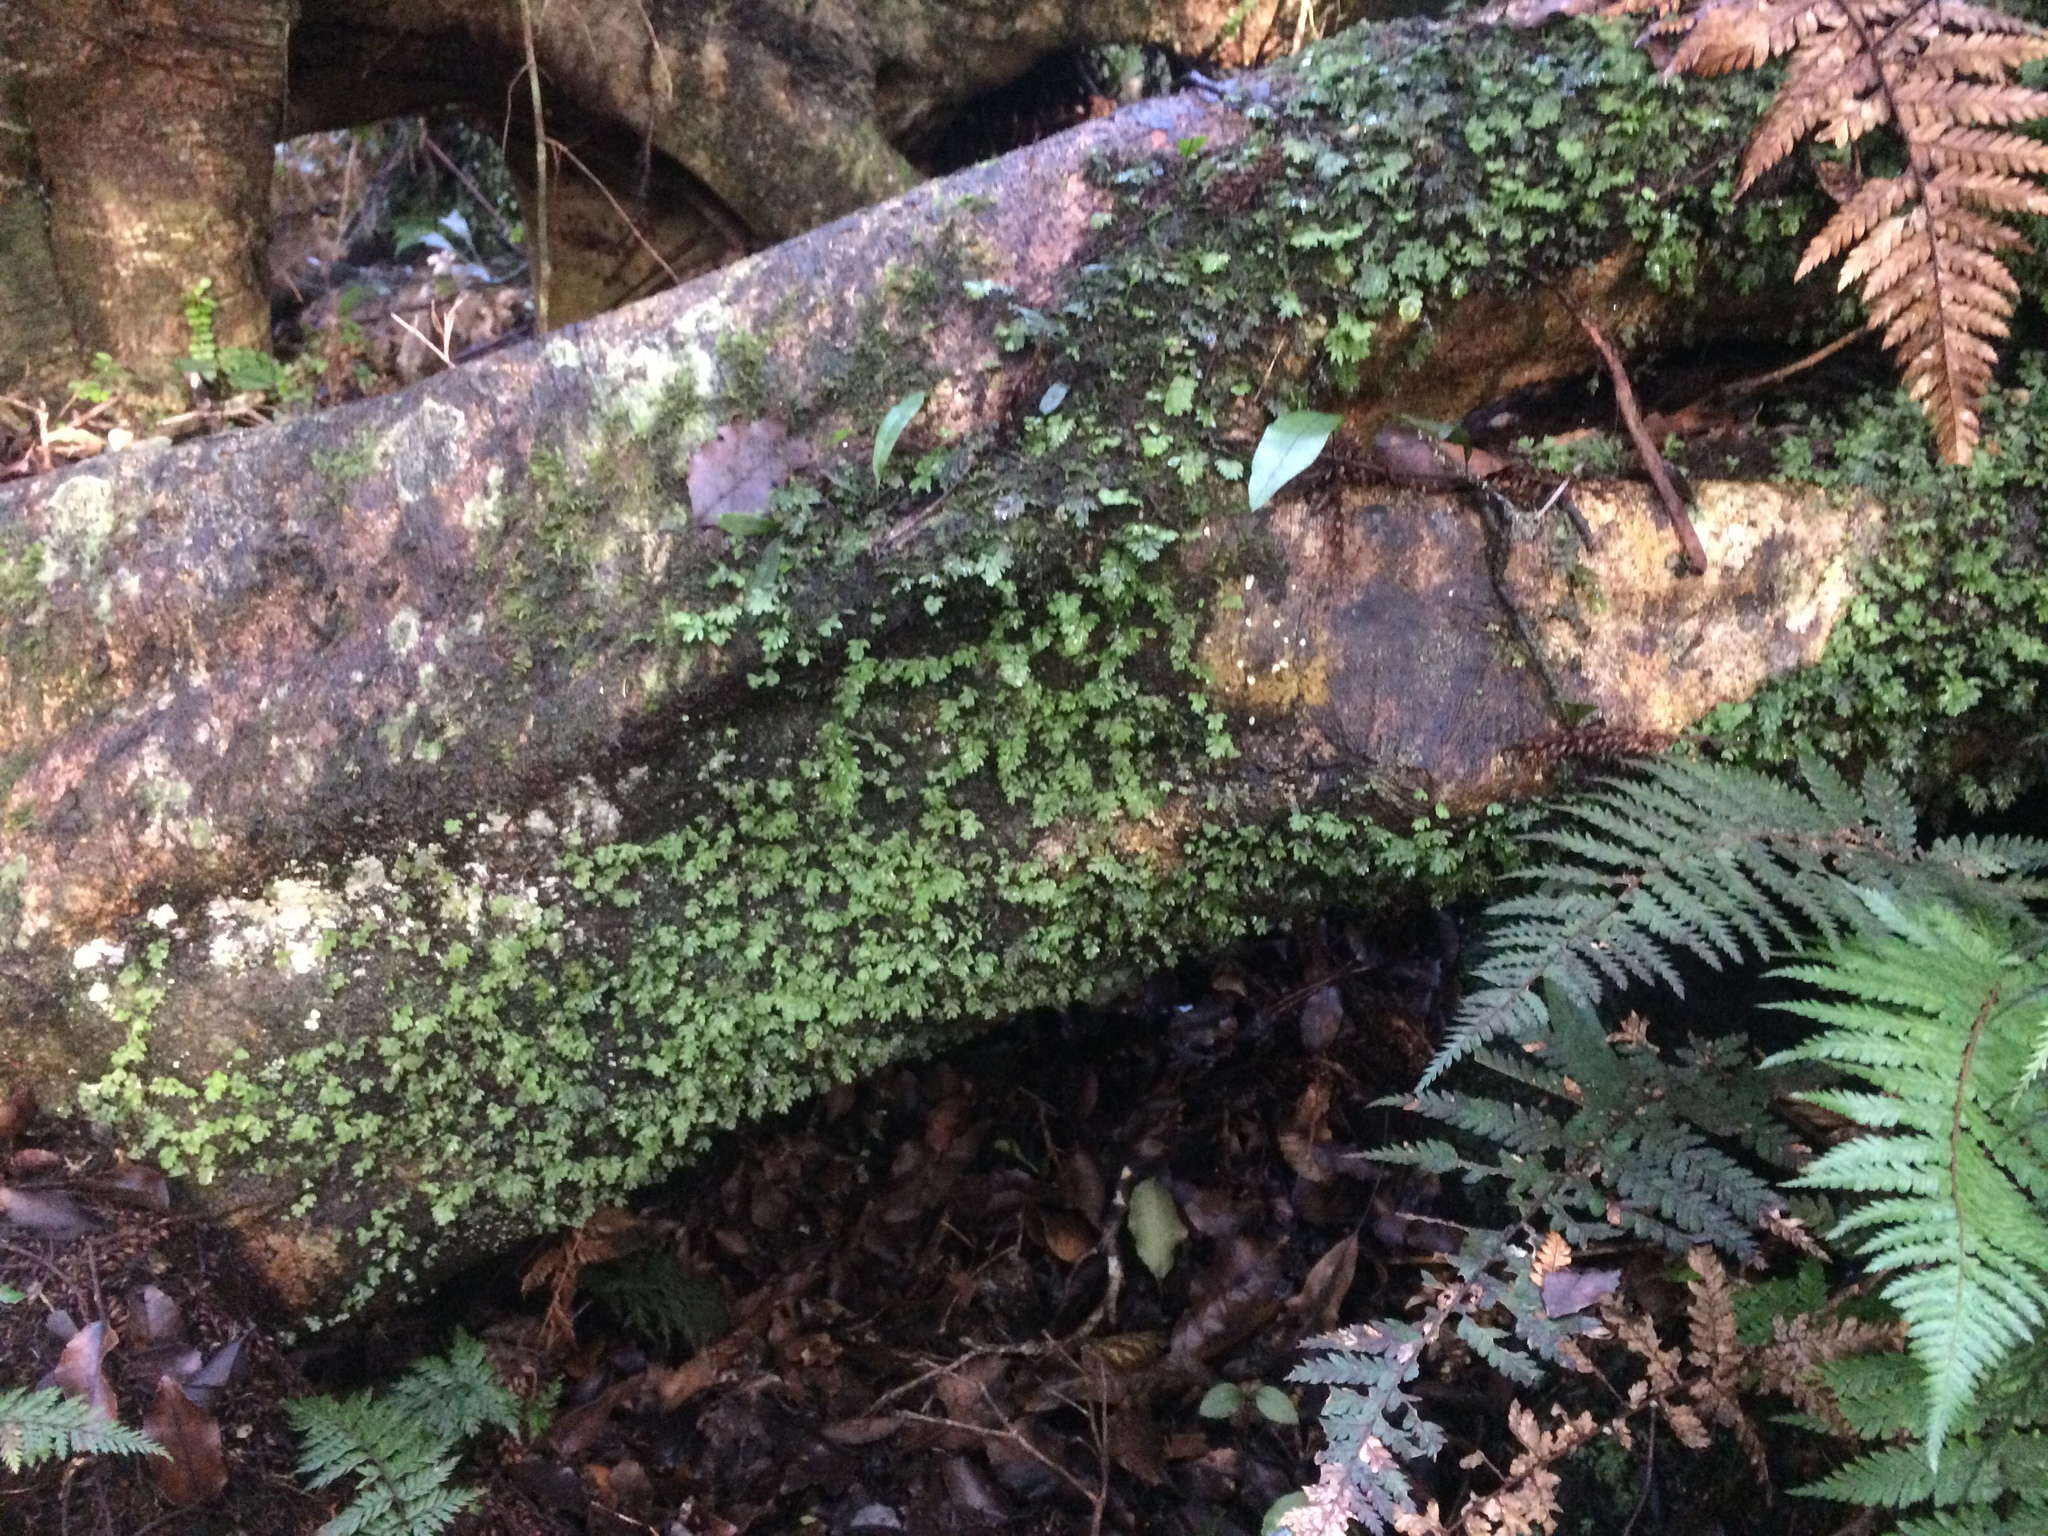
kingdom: Plantae
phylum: Tracheophyta
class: Polypodiopsida
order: Hymenophyllales
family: Hymenophyllaceae
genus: Hymenophyllum
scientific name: Hymenophyllum revolutum
